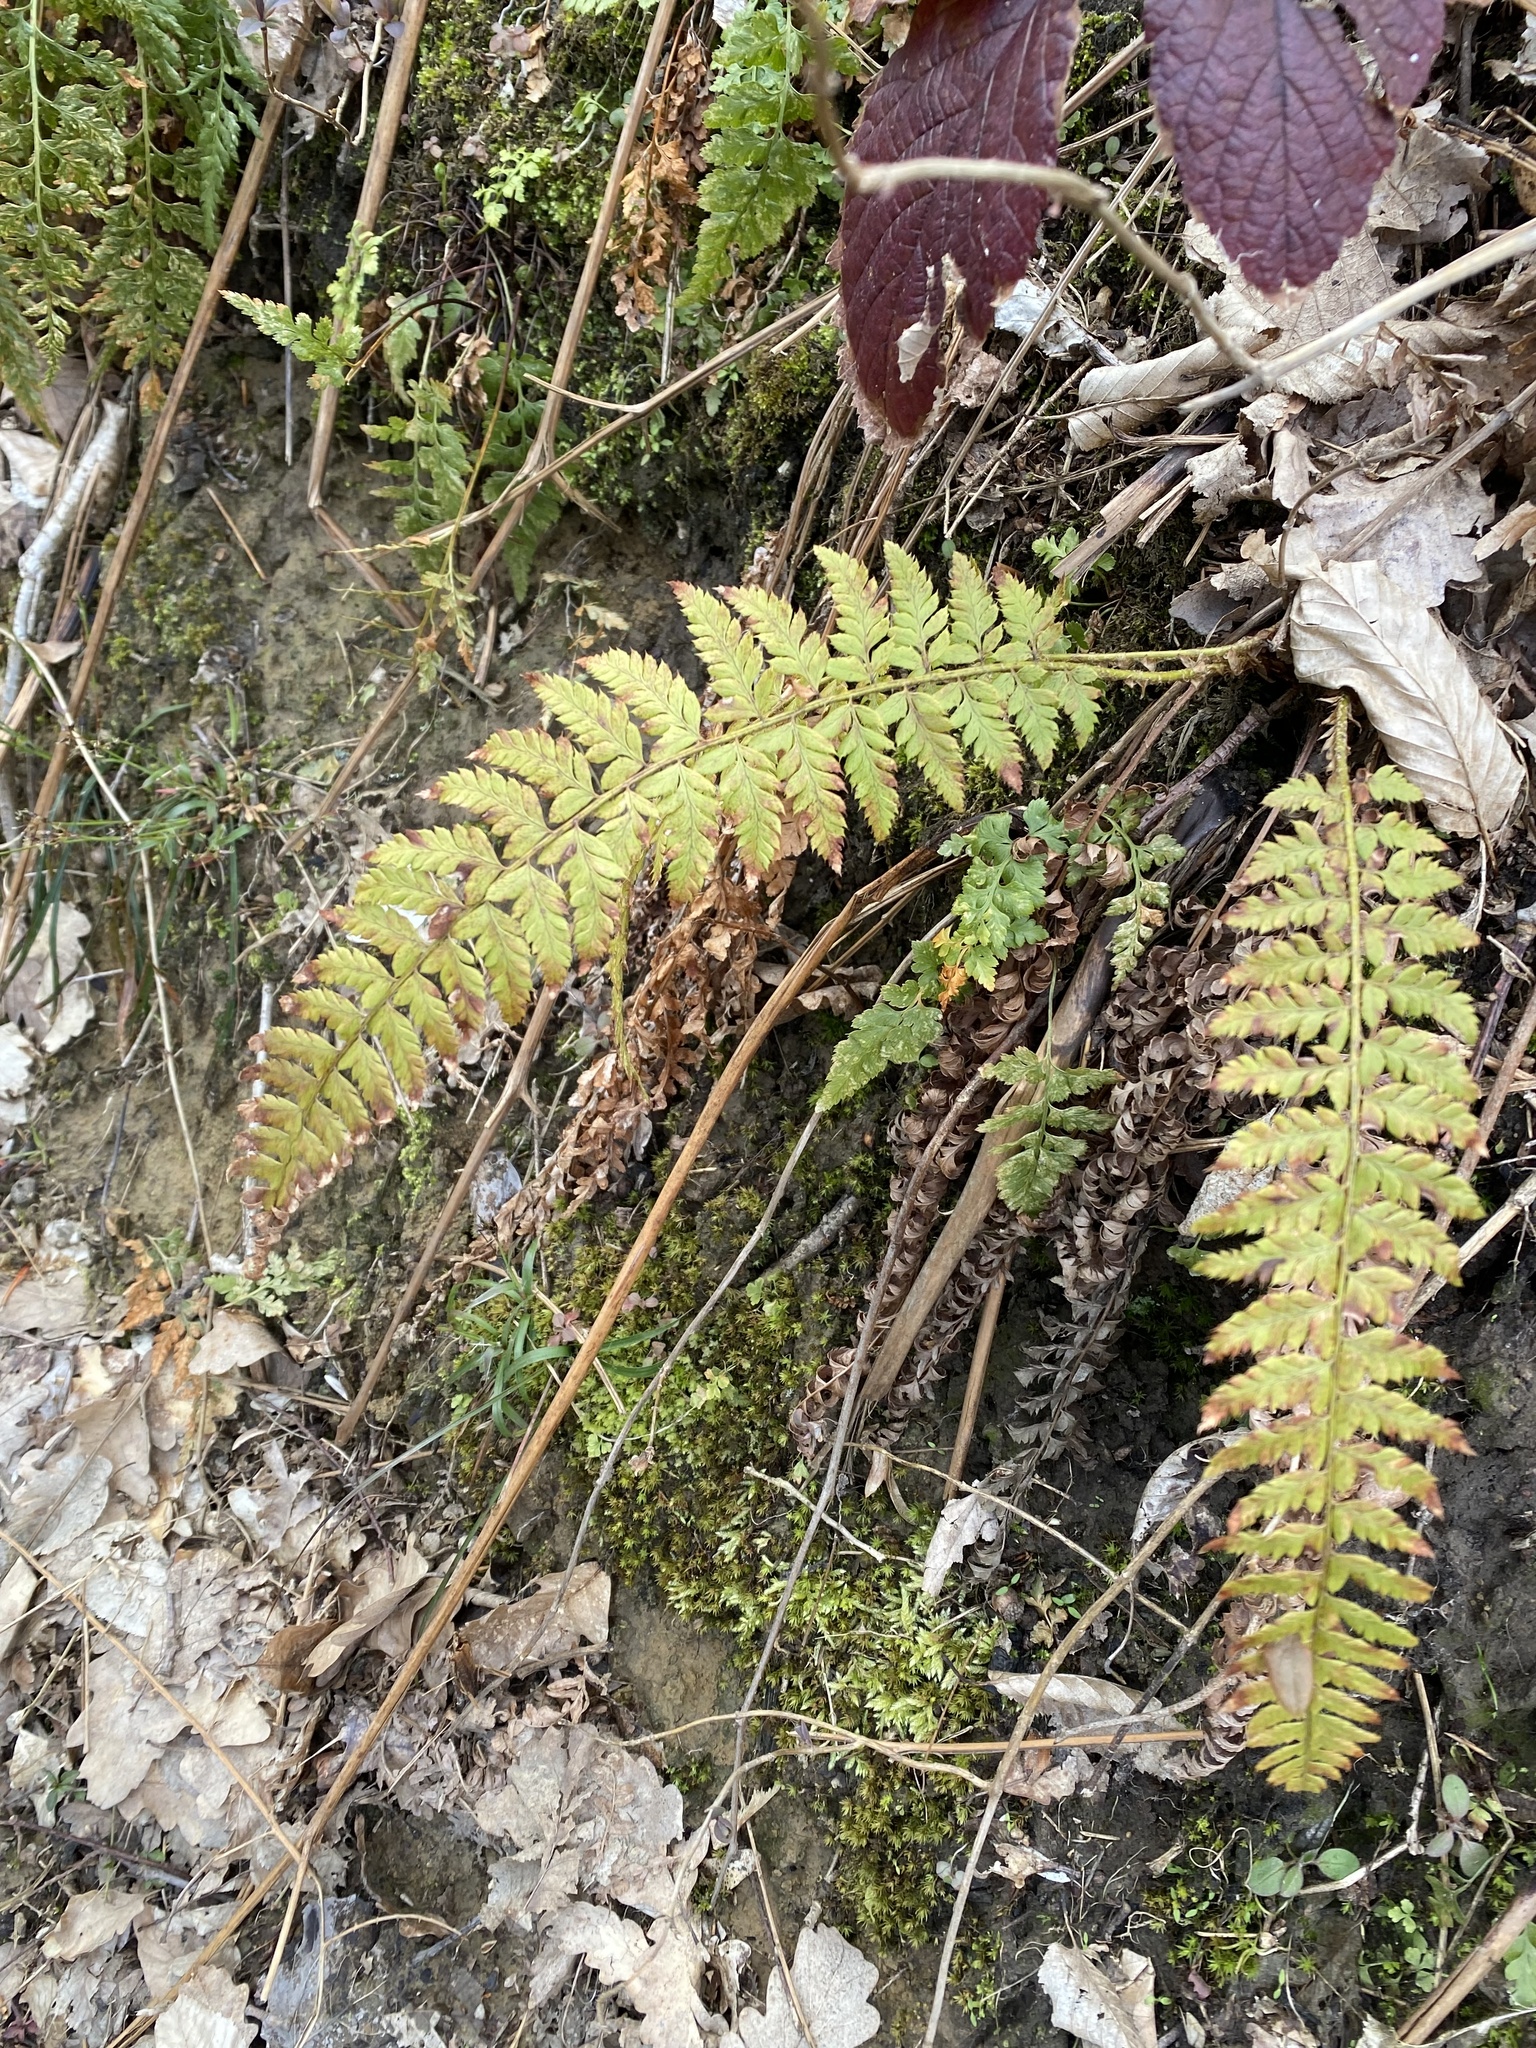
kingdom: Plantae
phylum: Tracheophyta
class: Polypodiopsida
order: Polypodiales
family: Dryopteridaceae
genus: Polystichum
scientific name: Polystichum aculeatum
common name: Hard shield-fern
